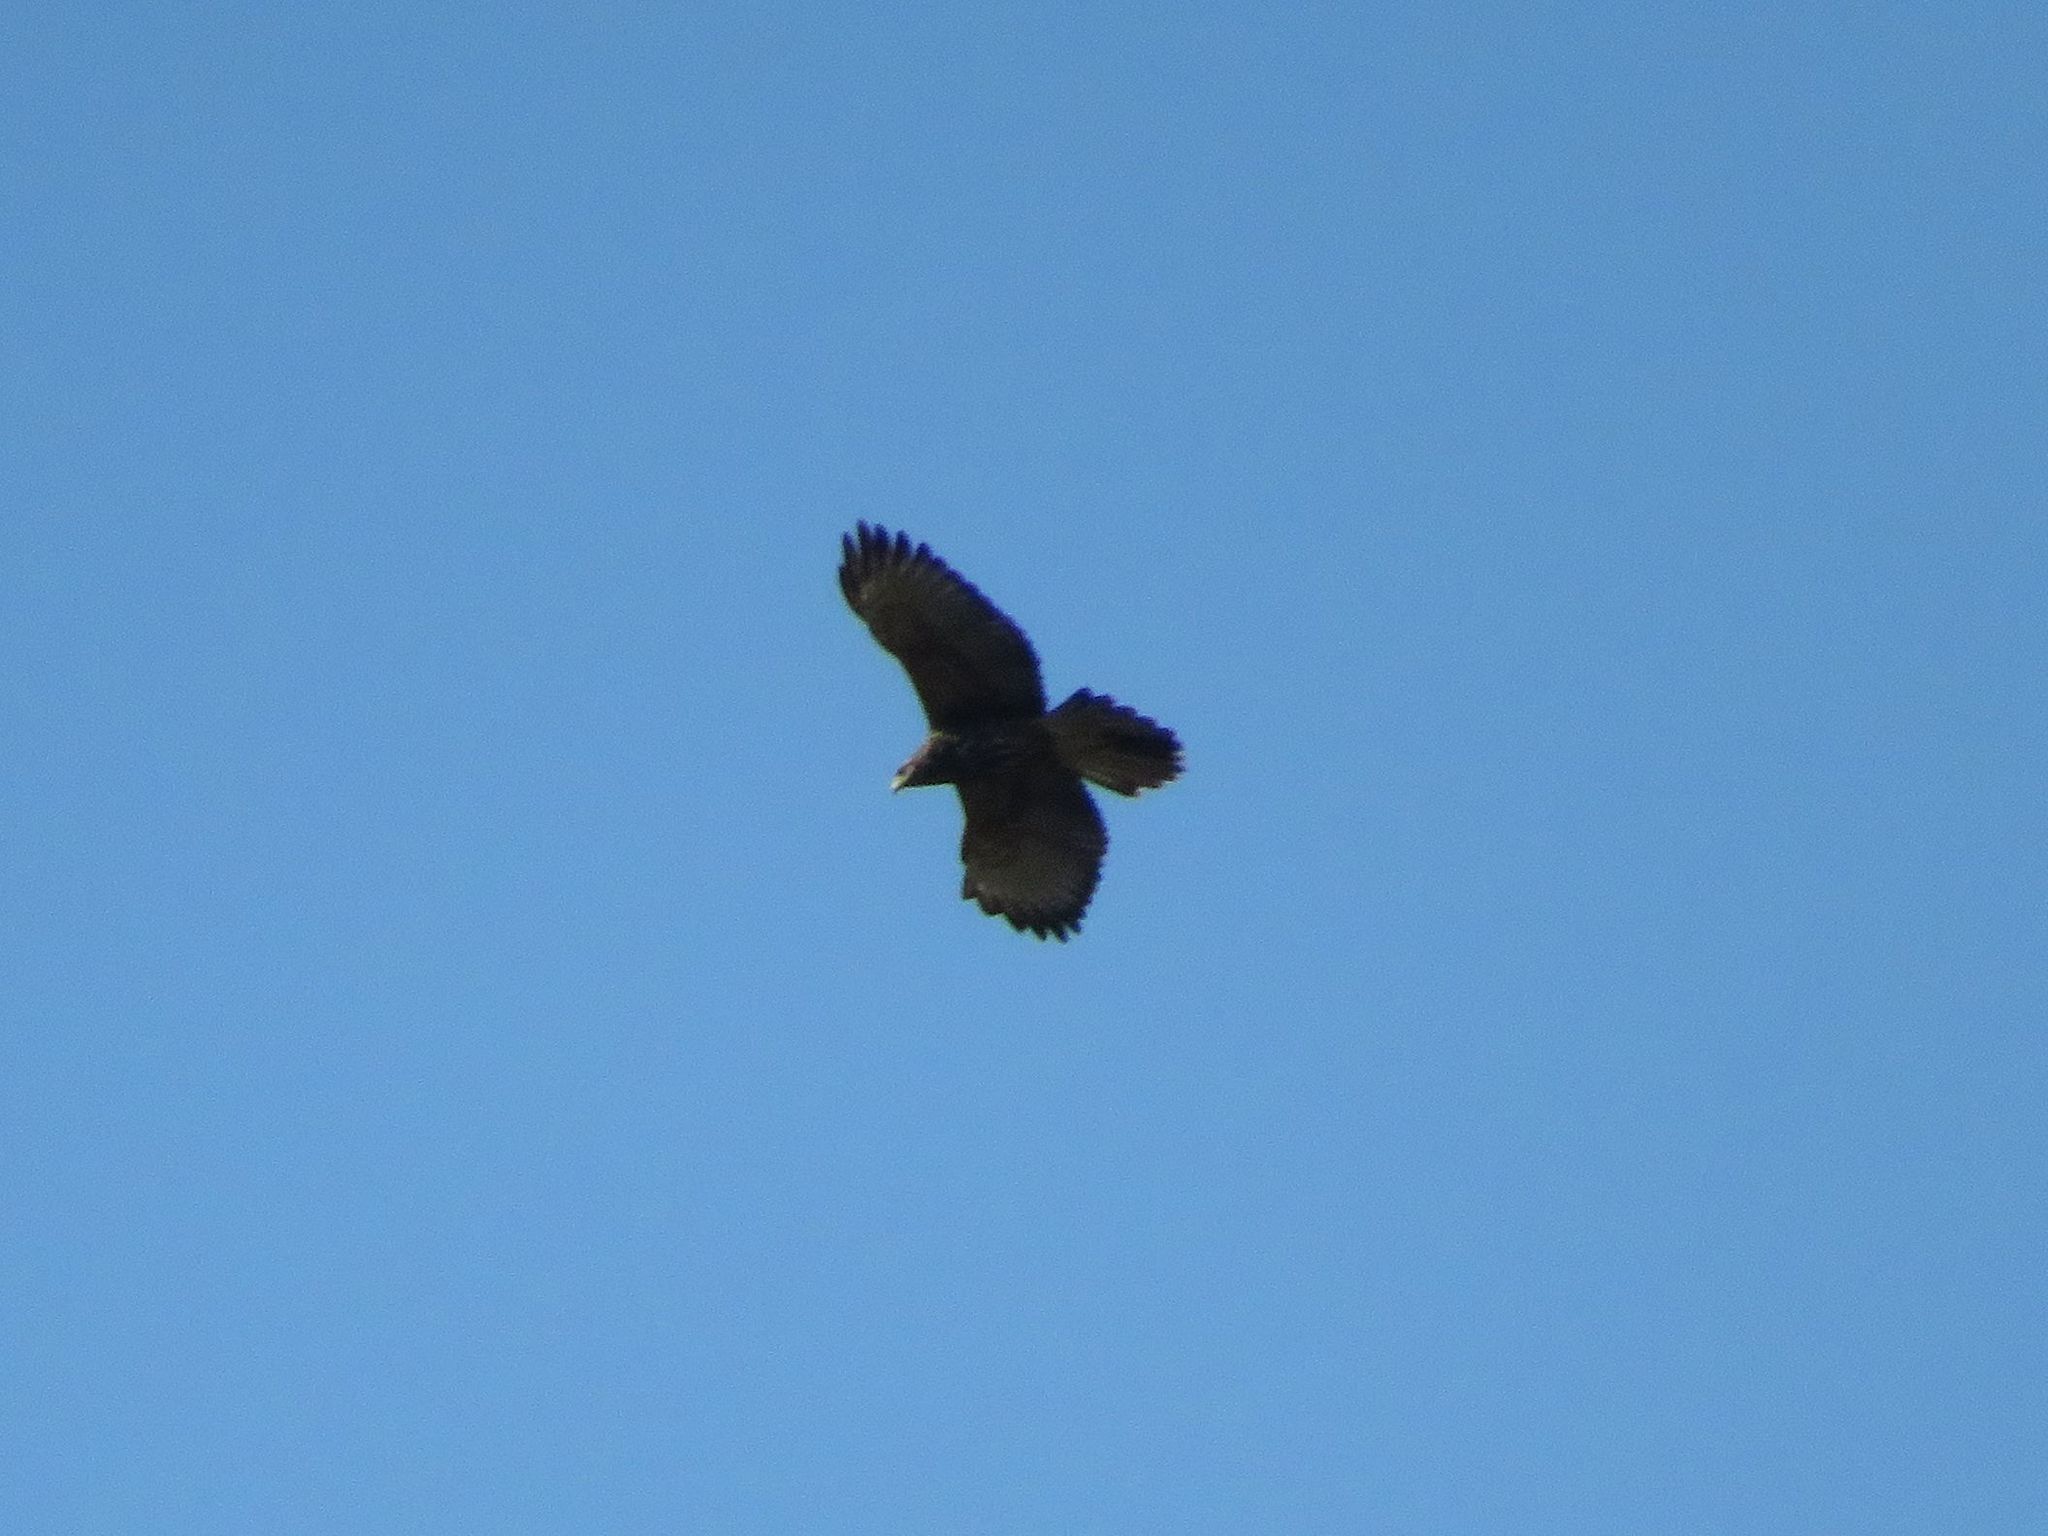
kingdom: Animalia
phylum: Chordata
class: Aves
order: Accipitriformes
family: Accipitridae
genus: Parabuteo
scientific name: Parabuteo unicinctus
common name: Harris's hawk
